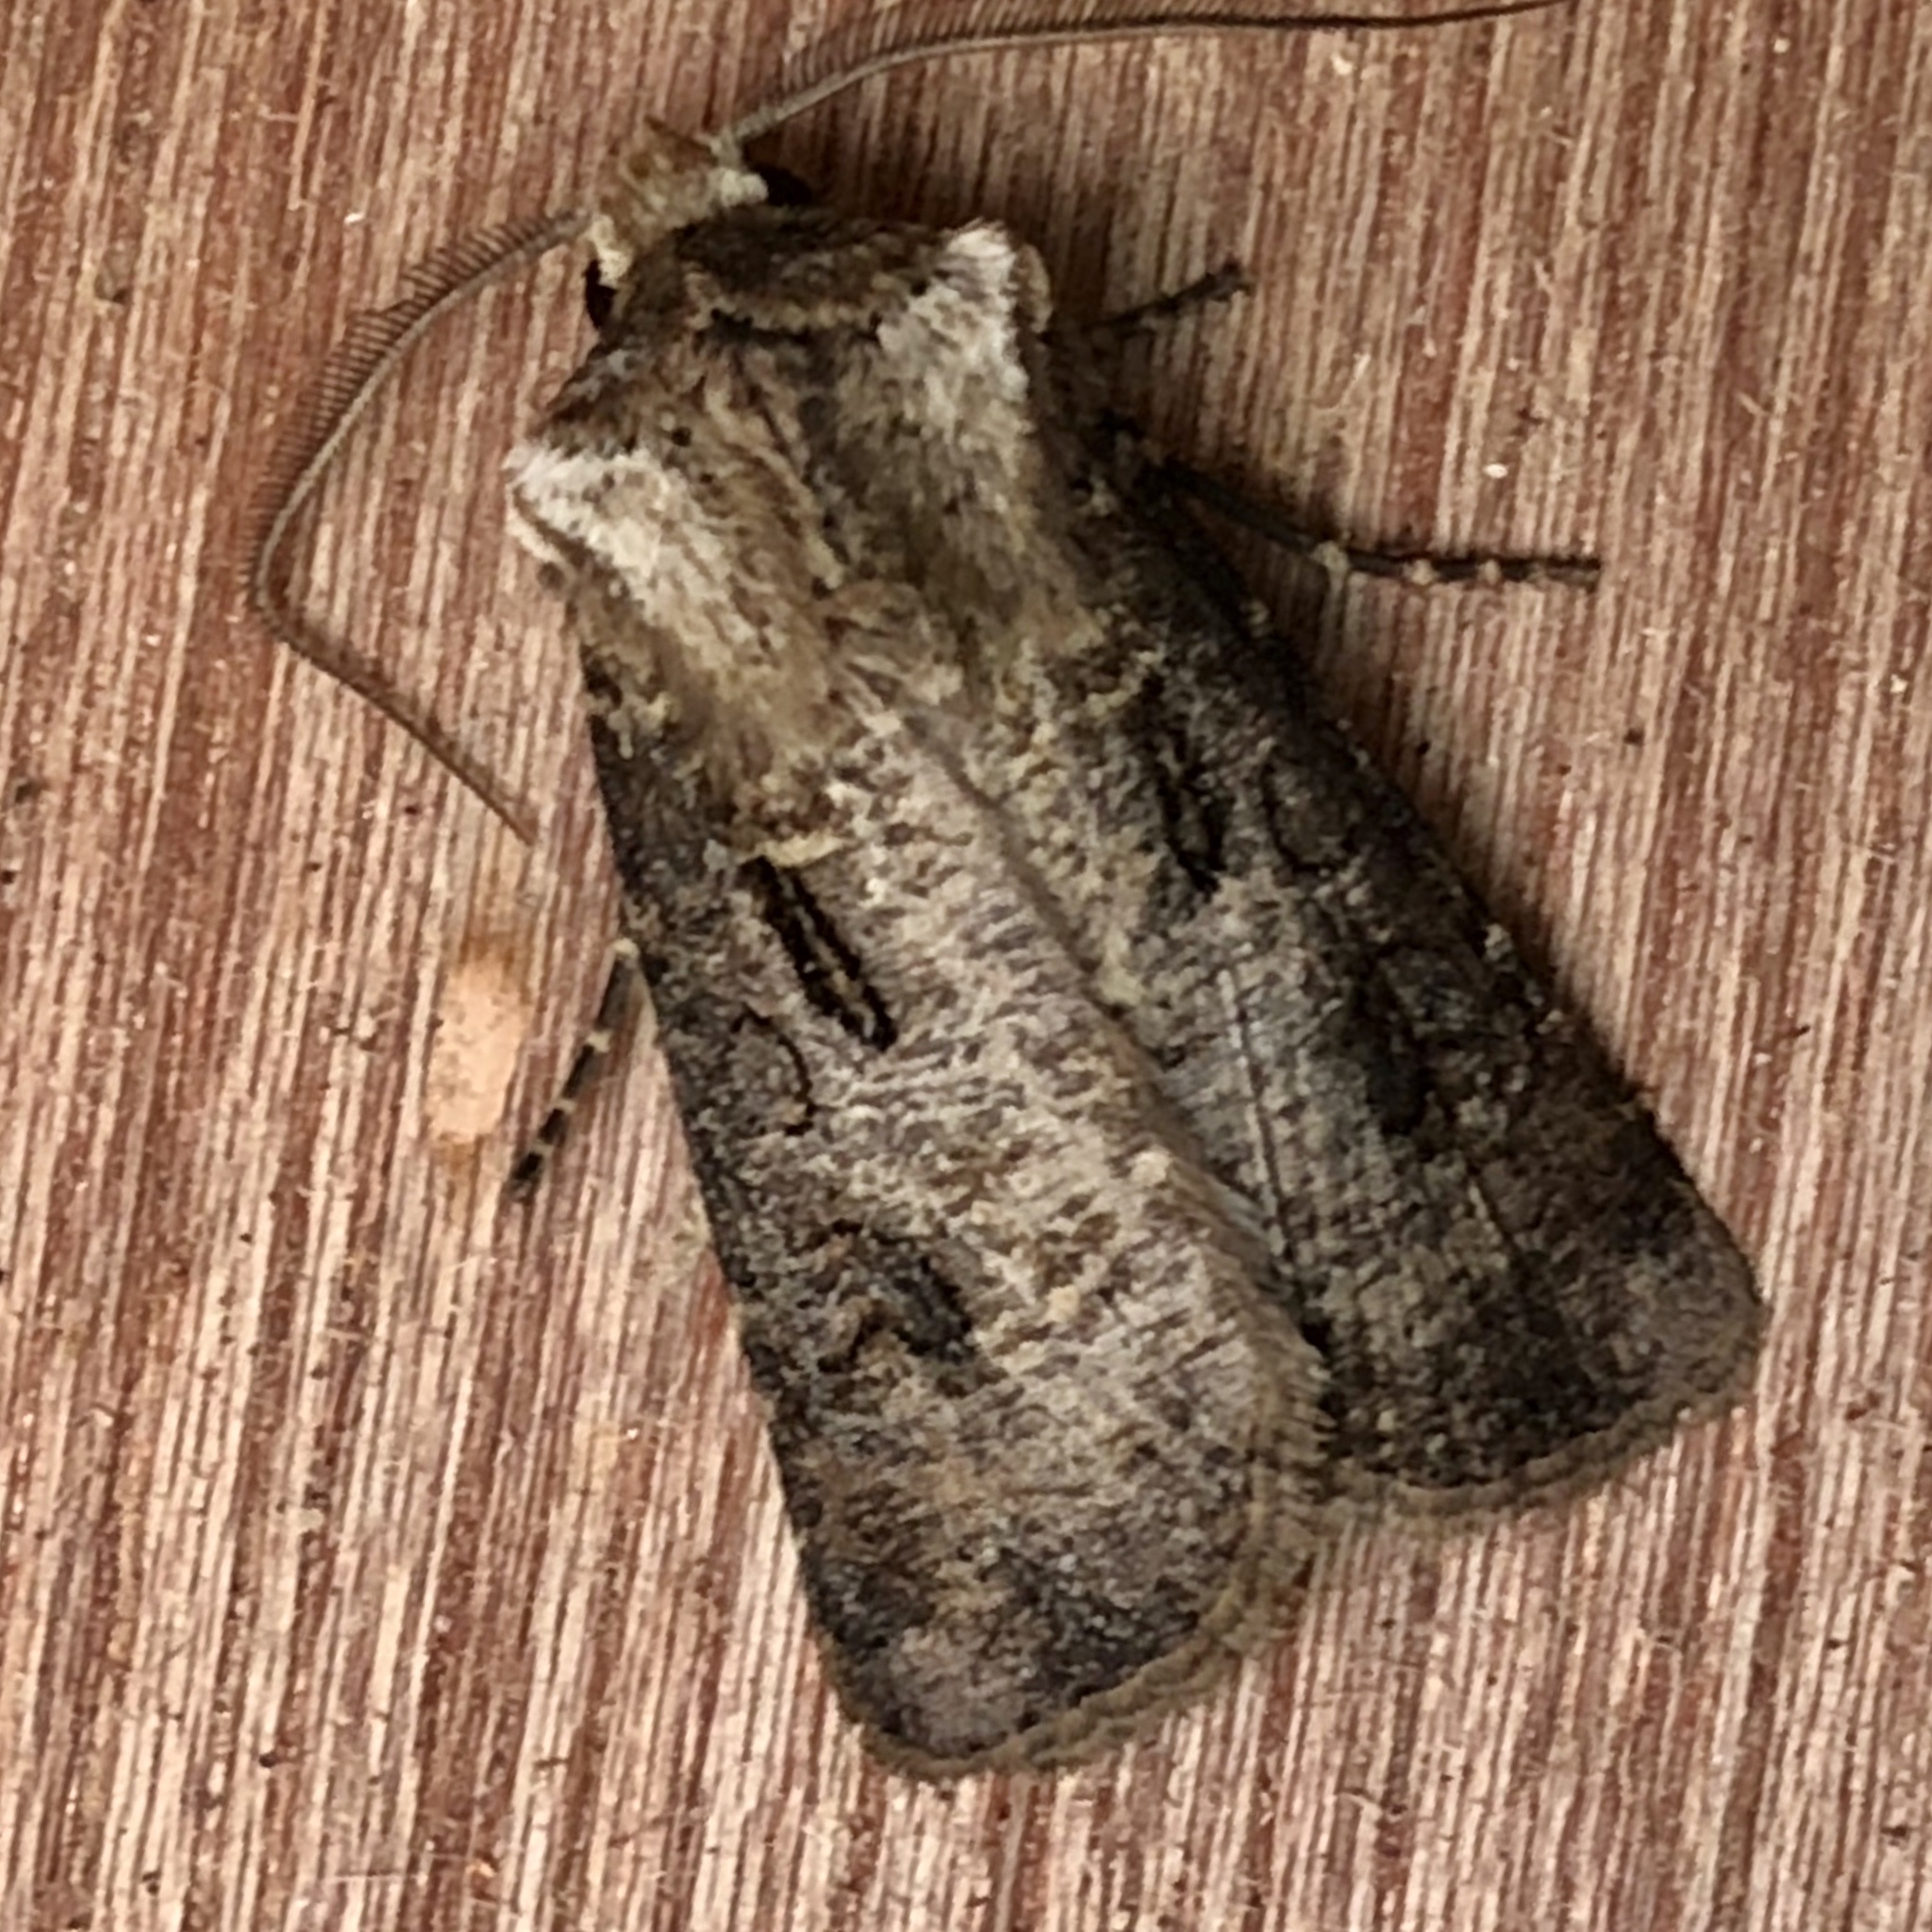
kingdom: Animalia
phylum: Arthropoda
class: Insecta
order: Lepidoptera
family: Noctuidae
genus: Agrotis
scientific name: Agrotis clavis
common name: Heart and club
